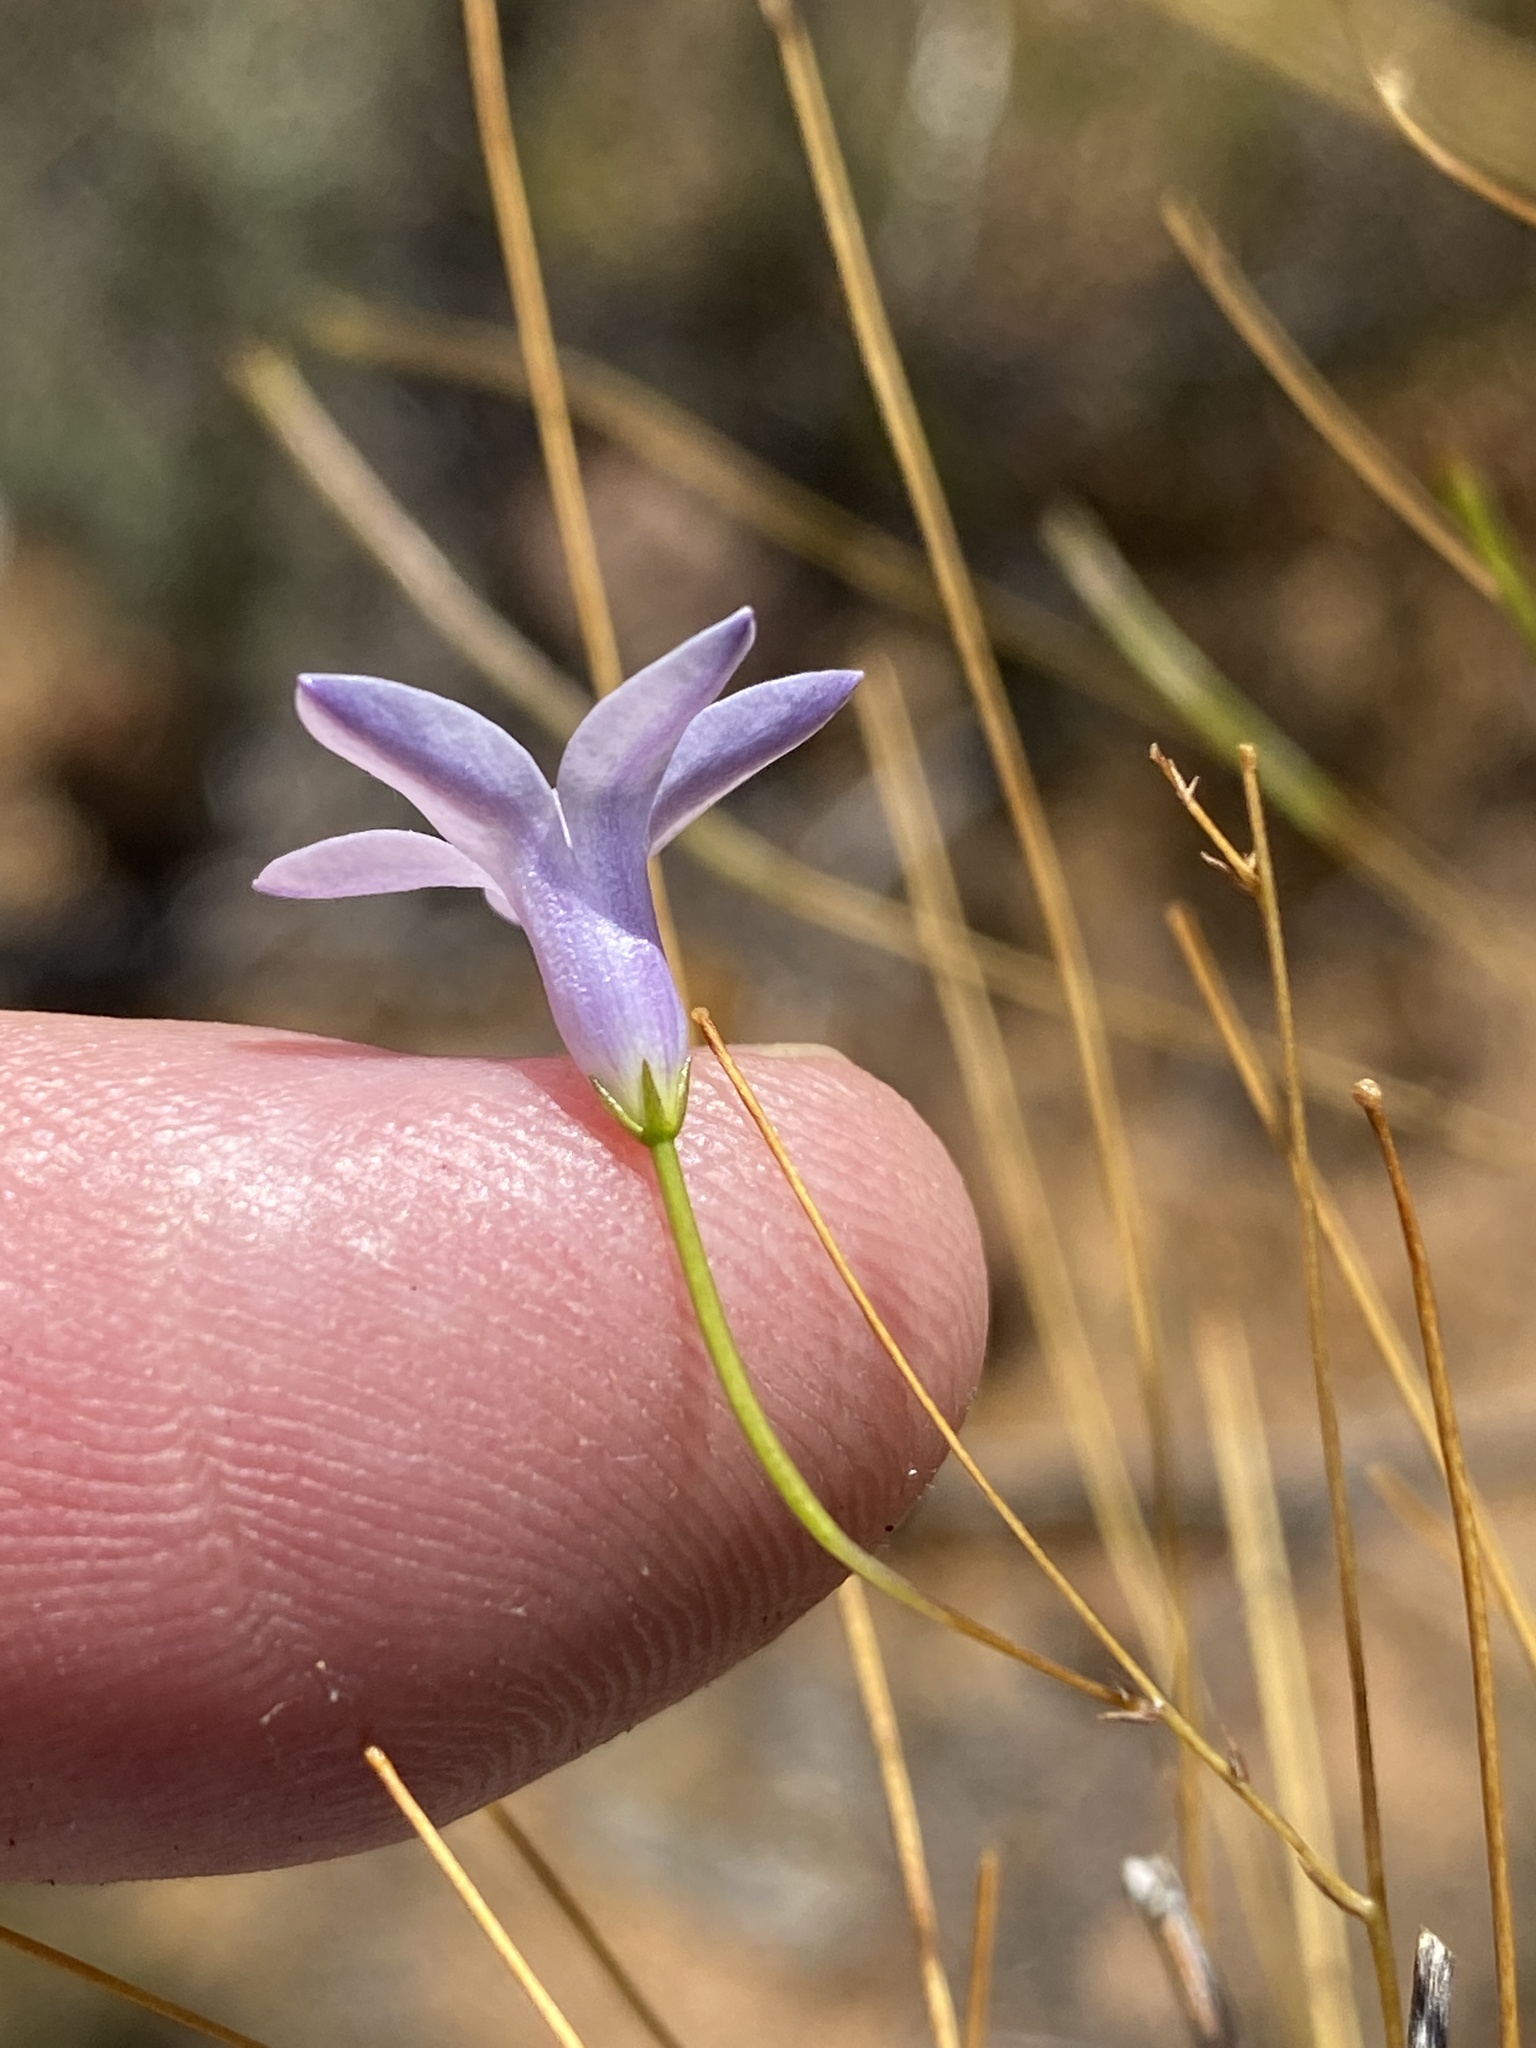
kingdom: Plantae
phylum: Tracheophyta
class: Magnoliopsida
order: Asterales
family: Campanulaceae
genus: Prismatocarpus
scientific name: Prismatocarpus pauciflorus
